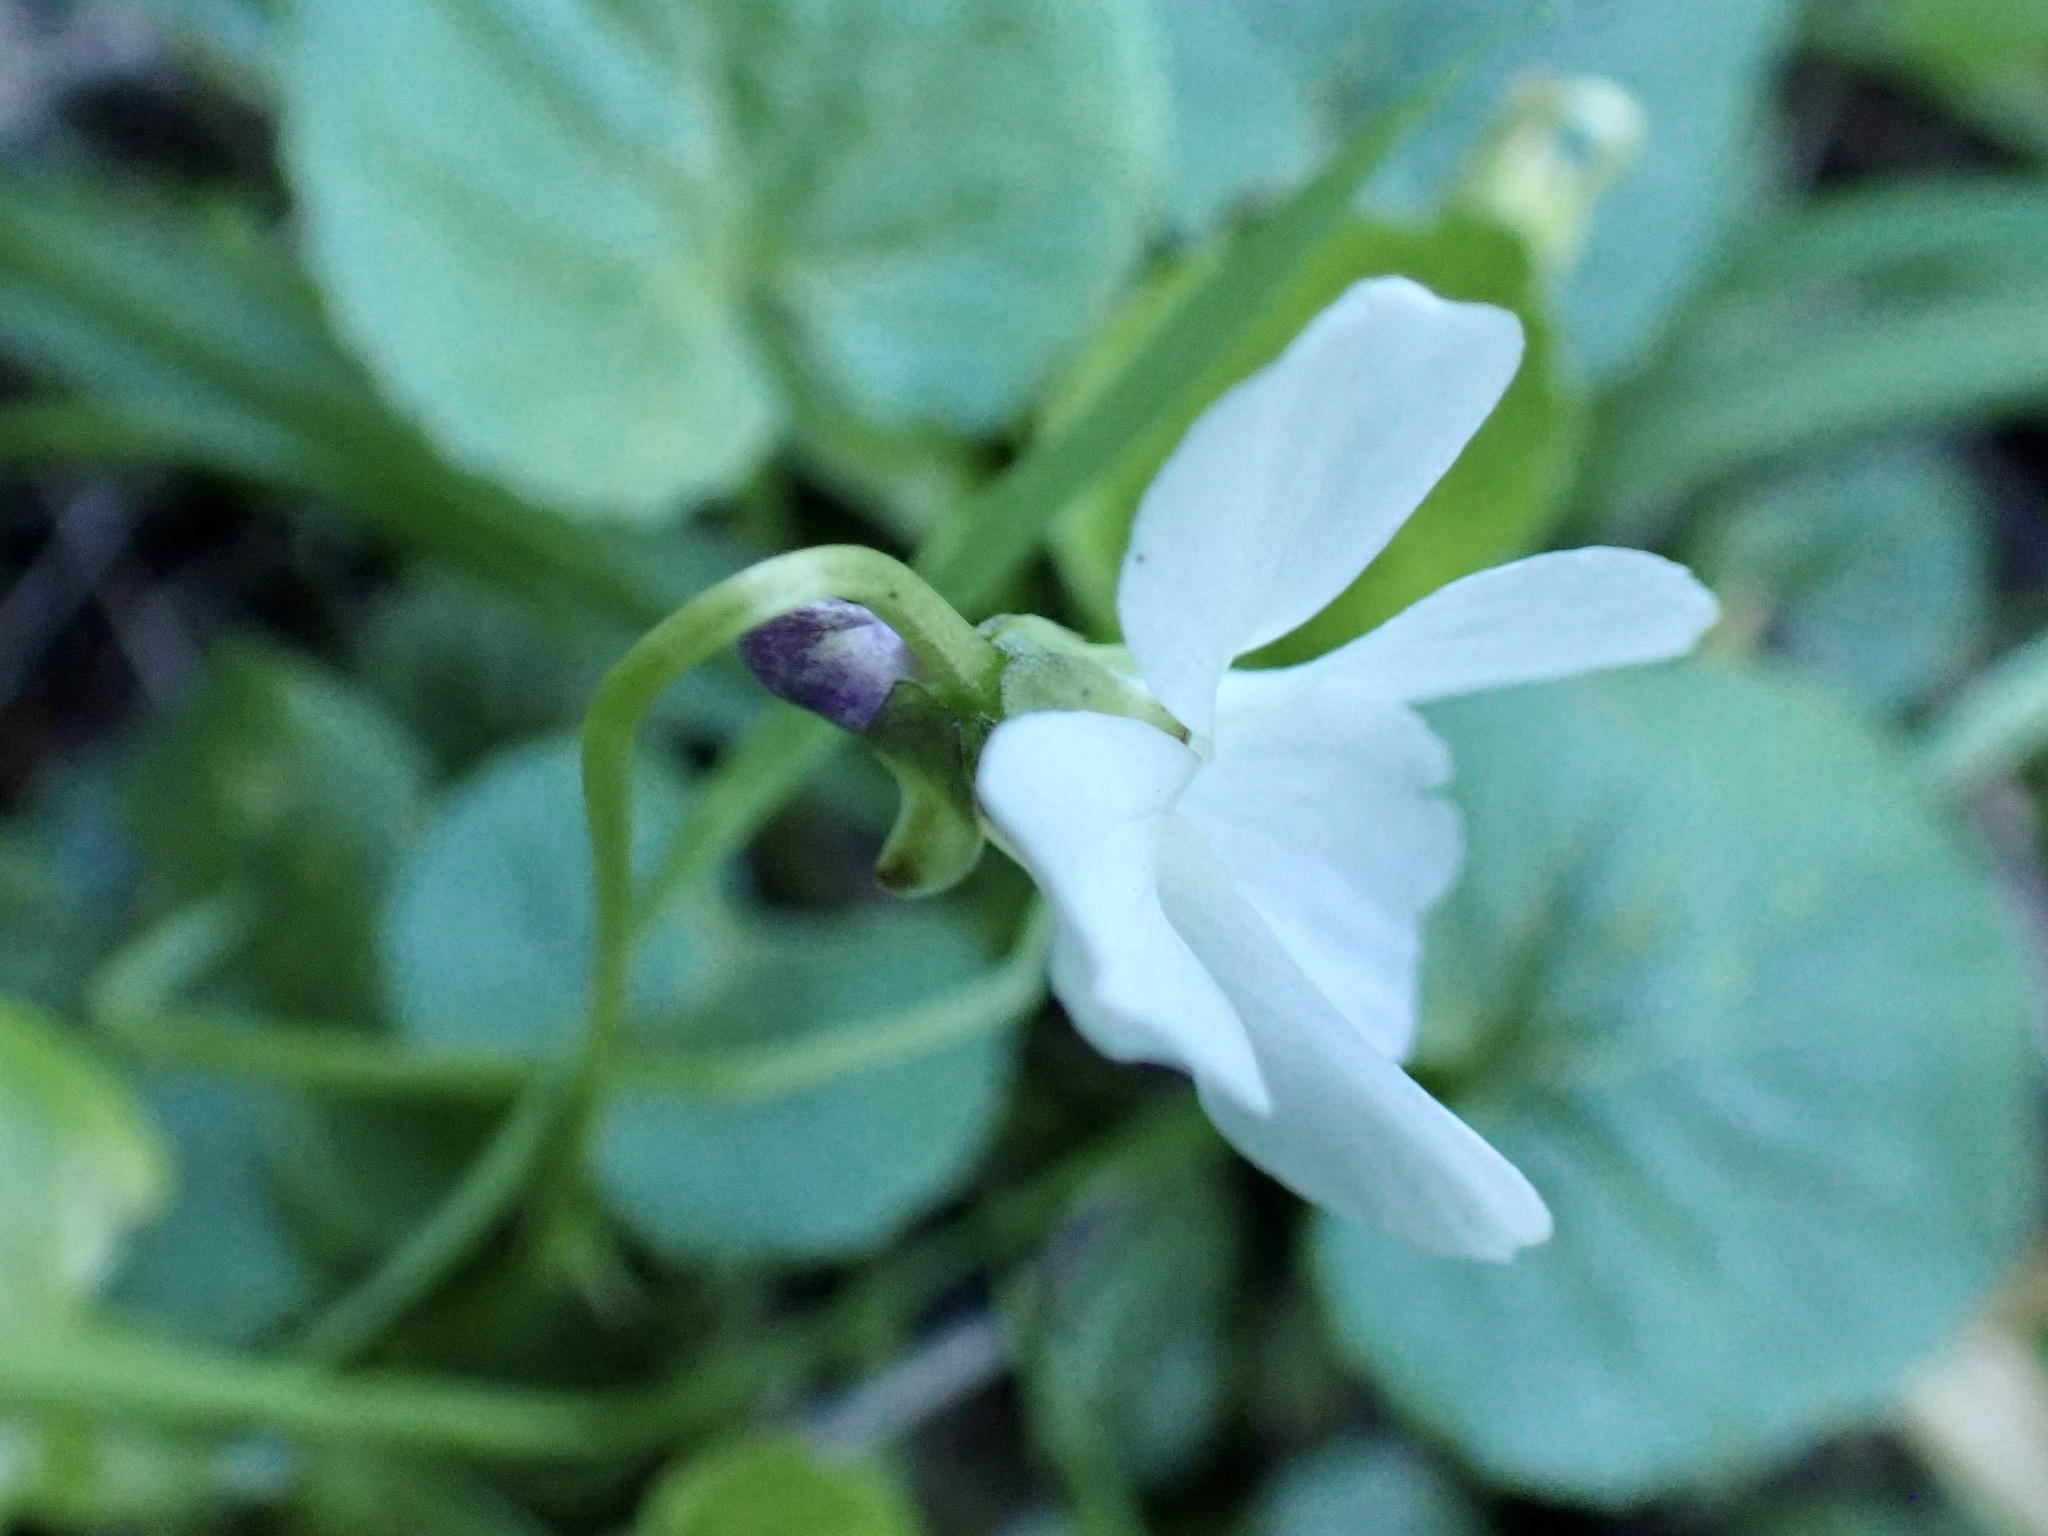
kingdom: Plantae
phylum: Tracheophyta
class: Magnoliopsida
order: Malpighiales
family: Violaceae
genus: Viola
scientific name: Viola odorata
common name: Sweet violet
